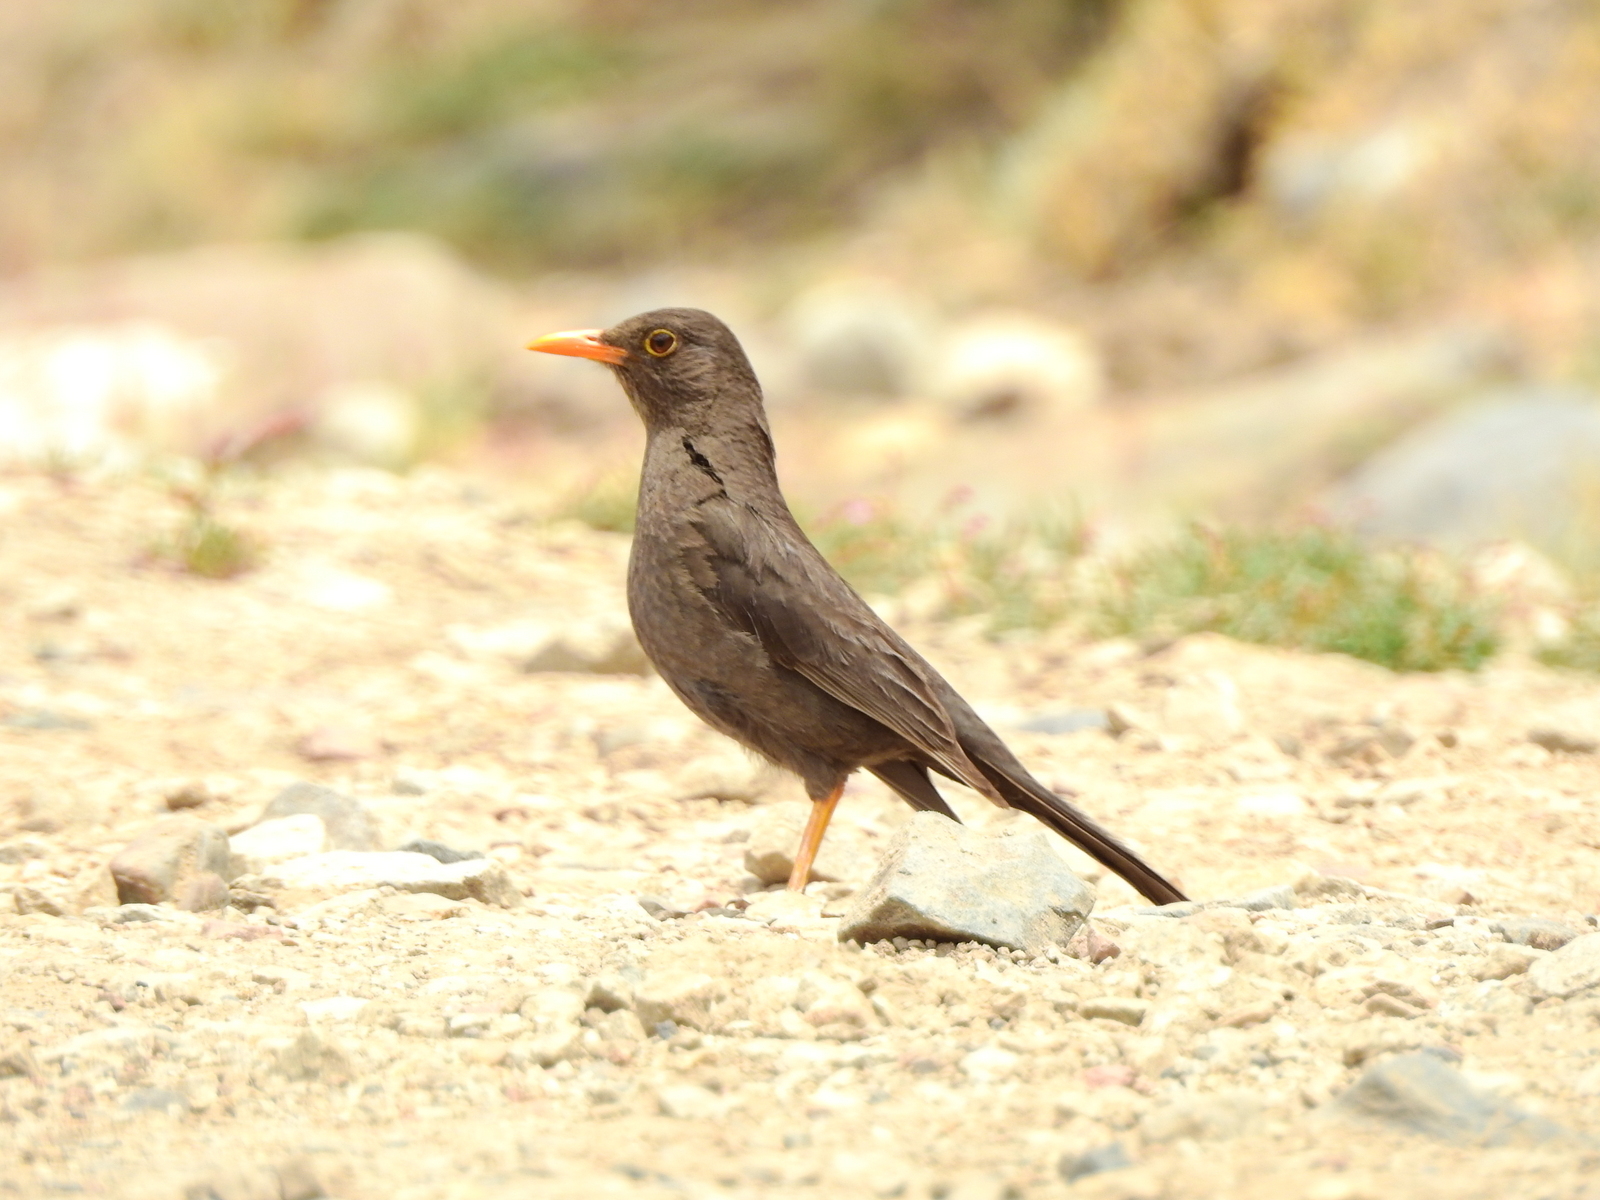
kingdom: Animalia
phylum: Chordata
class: Aves
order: Passeriformes
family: Turdidae
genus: Turdus
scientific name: Turdus chiguanco
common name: Chiguanco thrush
